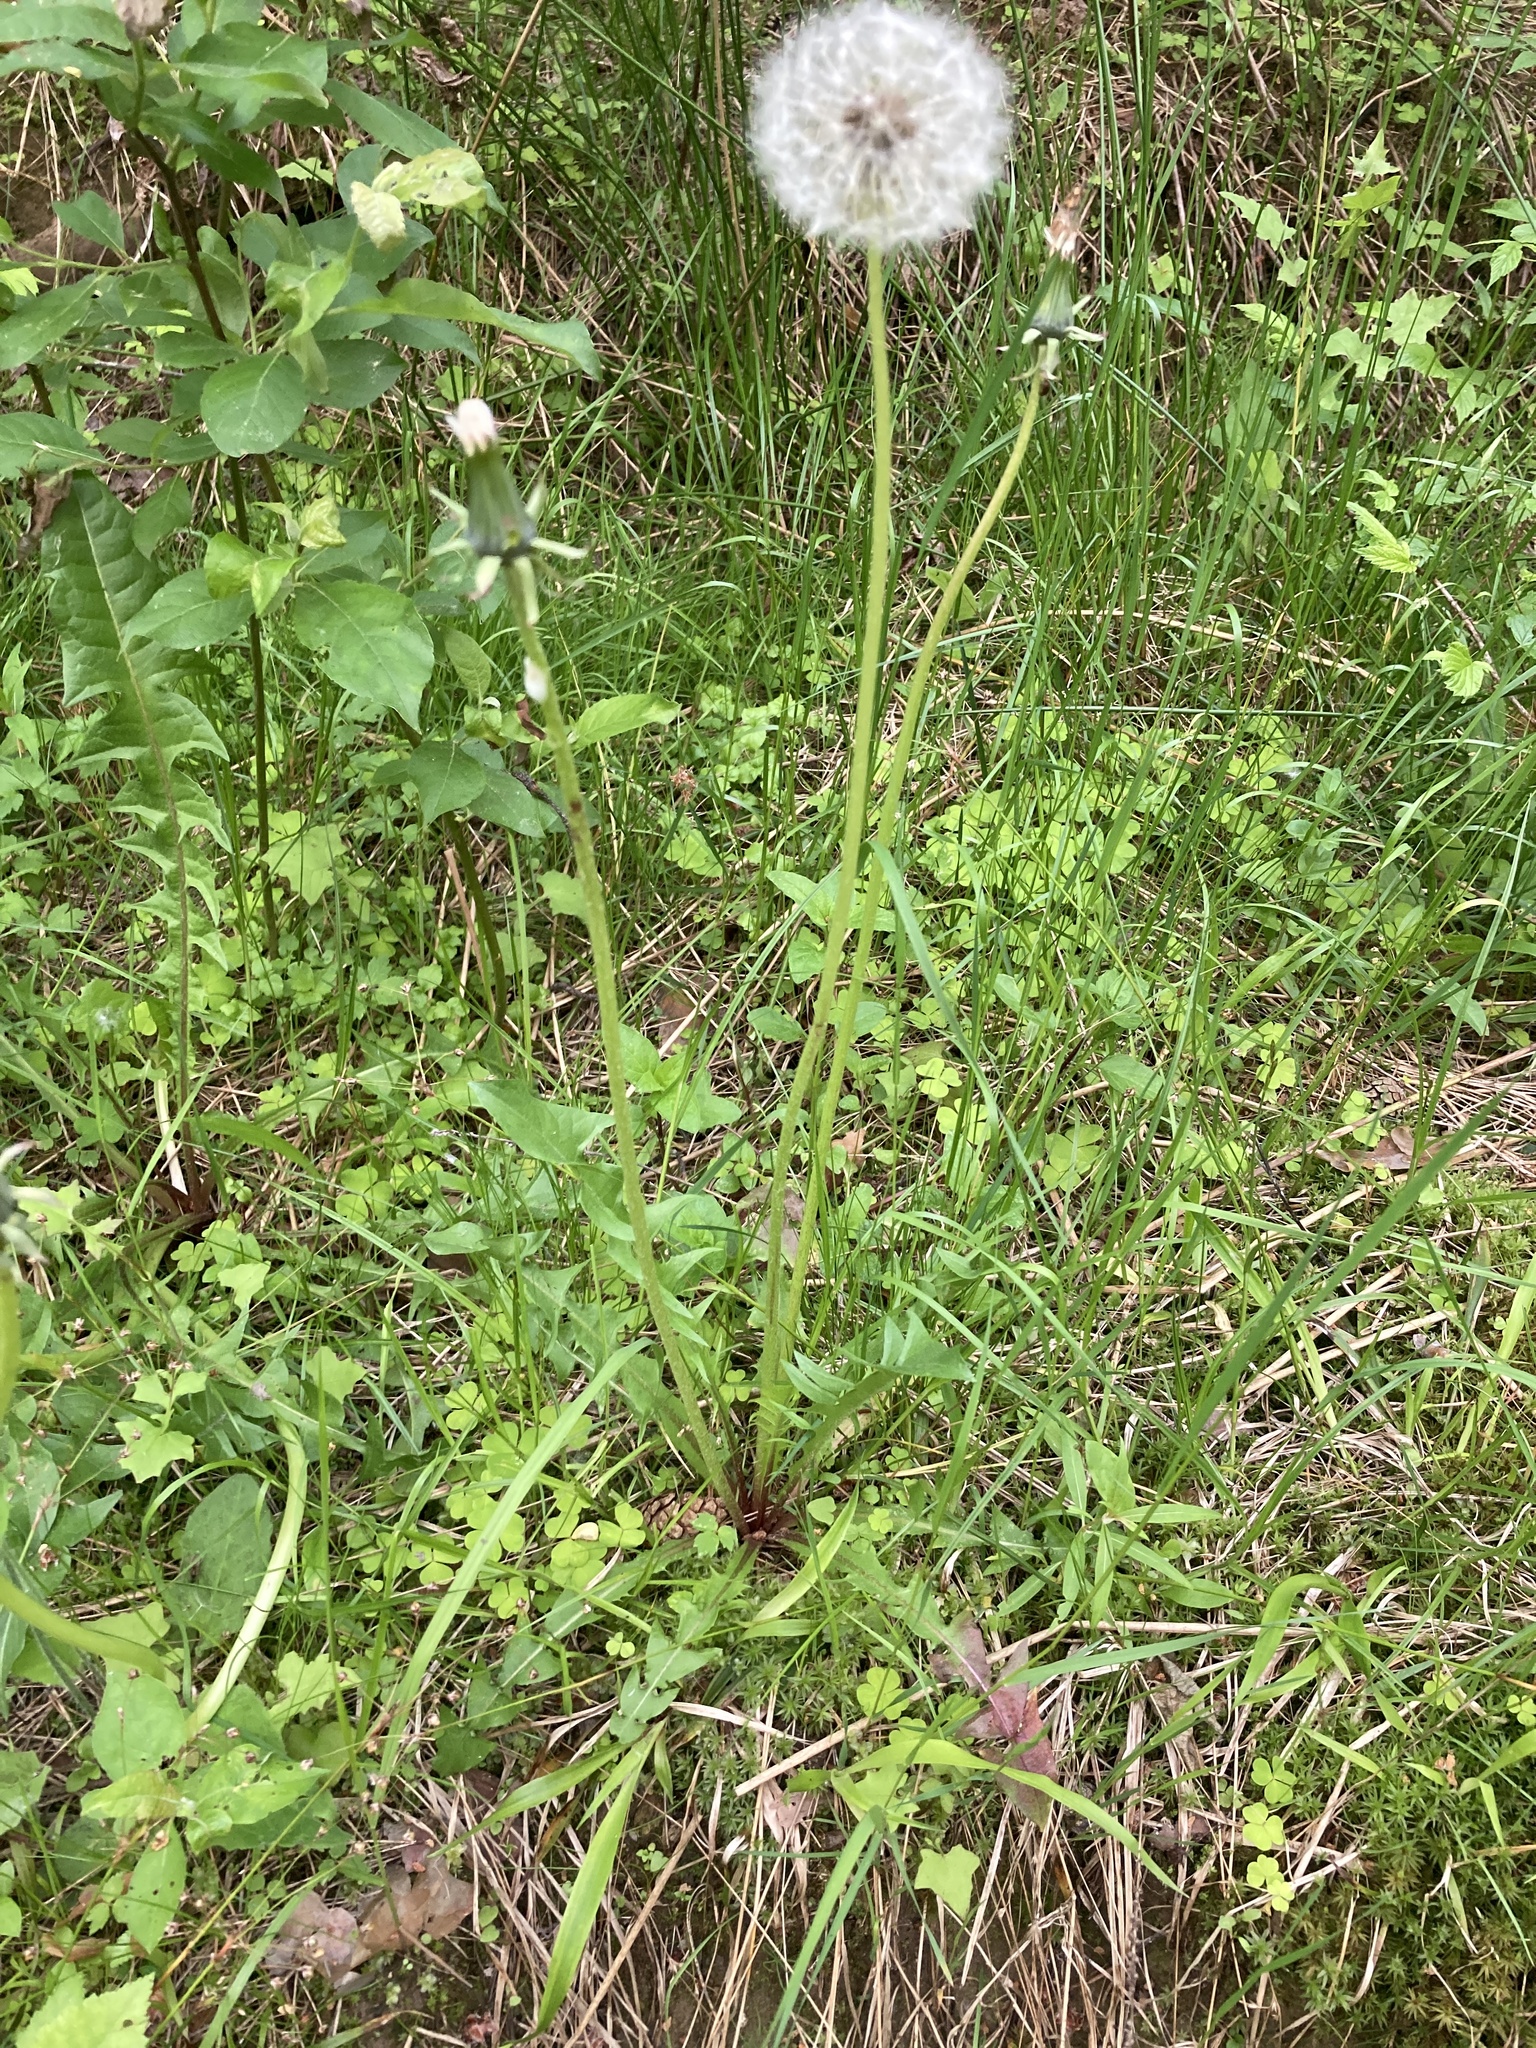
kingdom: Plantae
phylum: Tracheophyta
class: Magnoliopsida
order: Asterales
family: Asteraceae
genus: Taraxacum
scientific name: Taraxacum officinale
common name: Common dandelion
